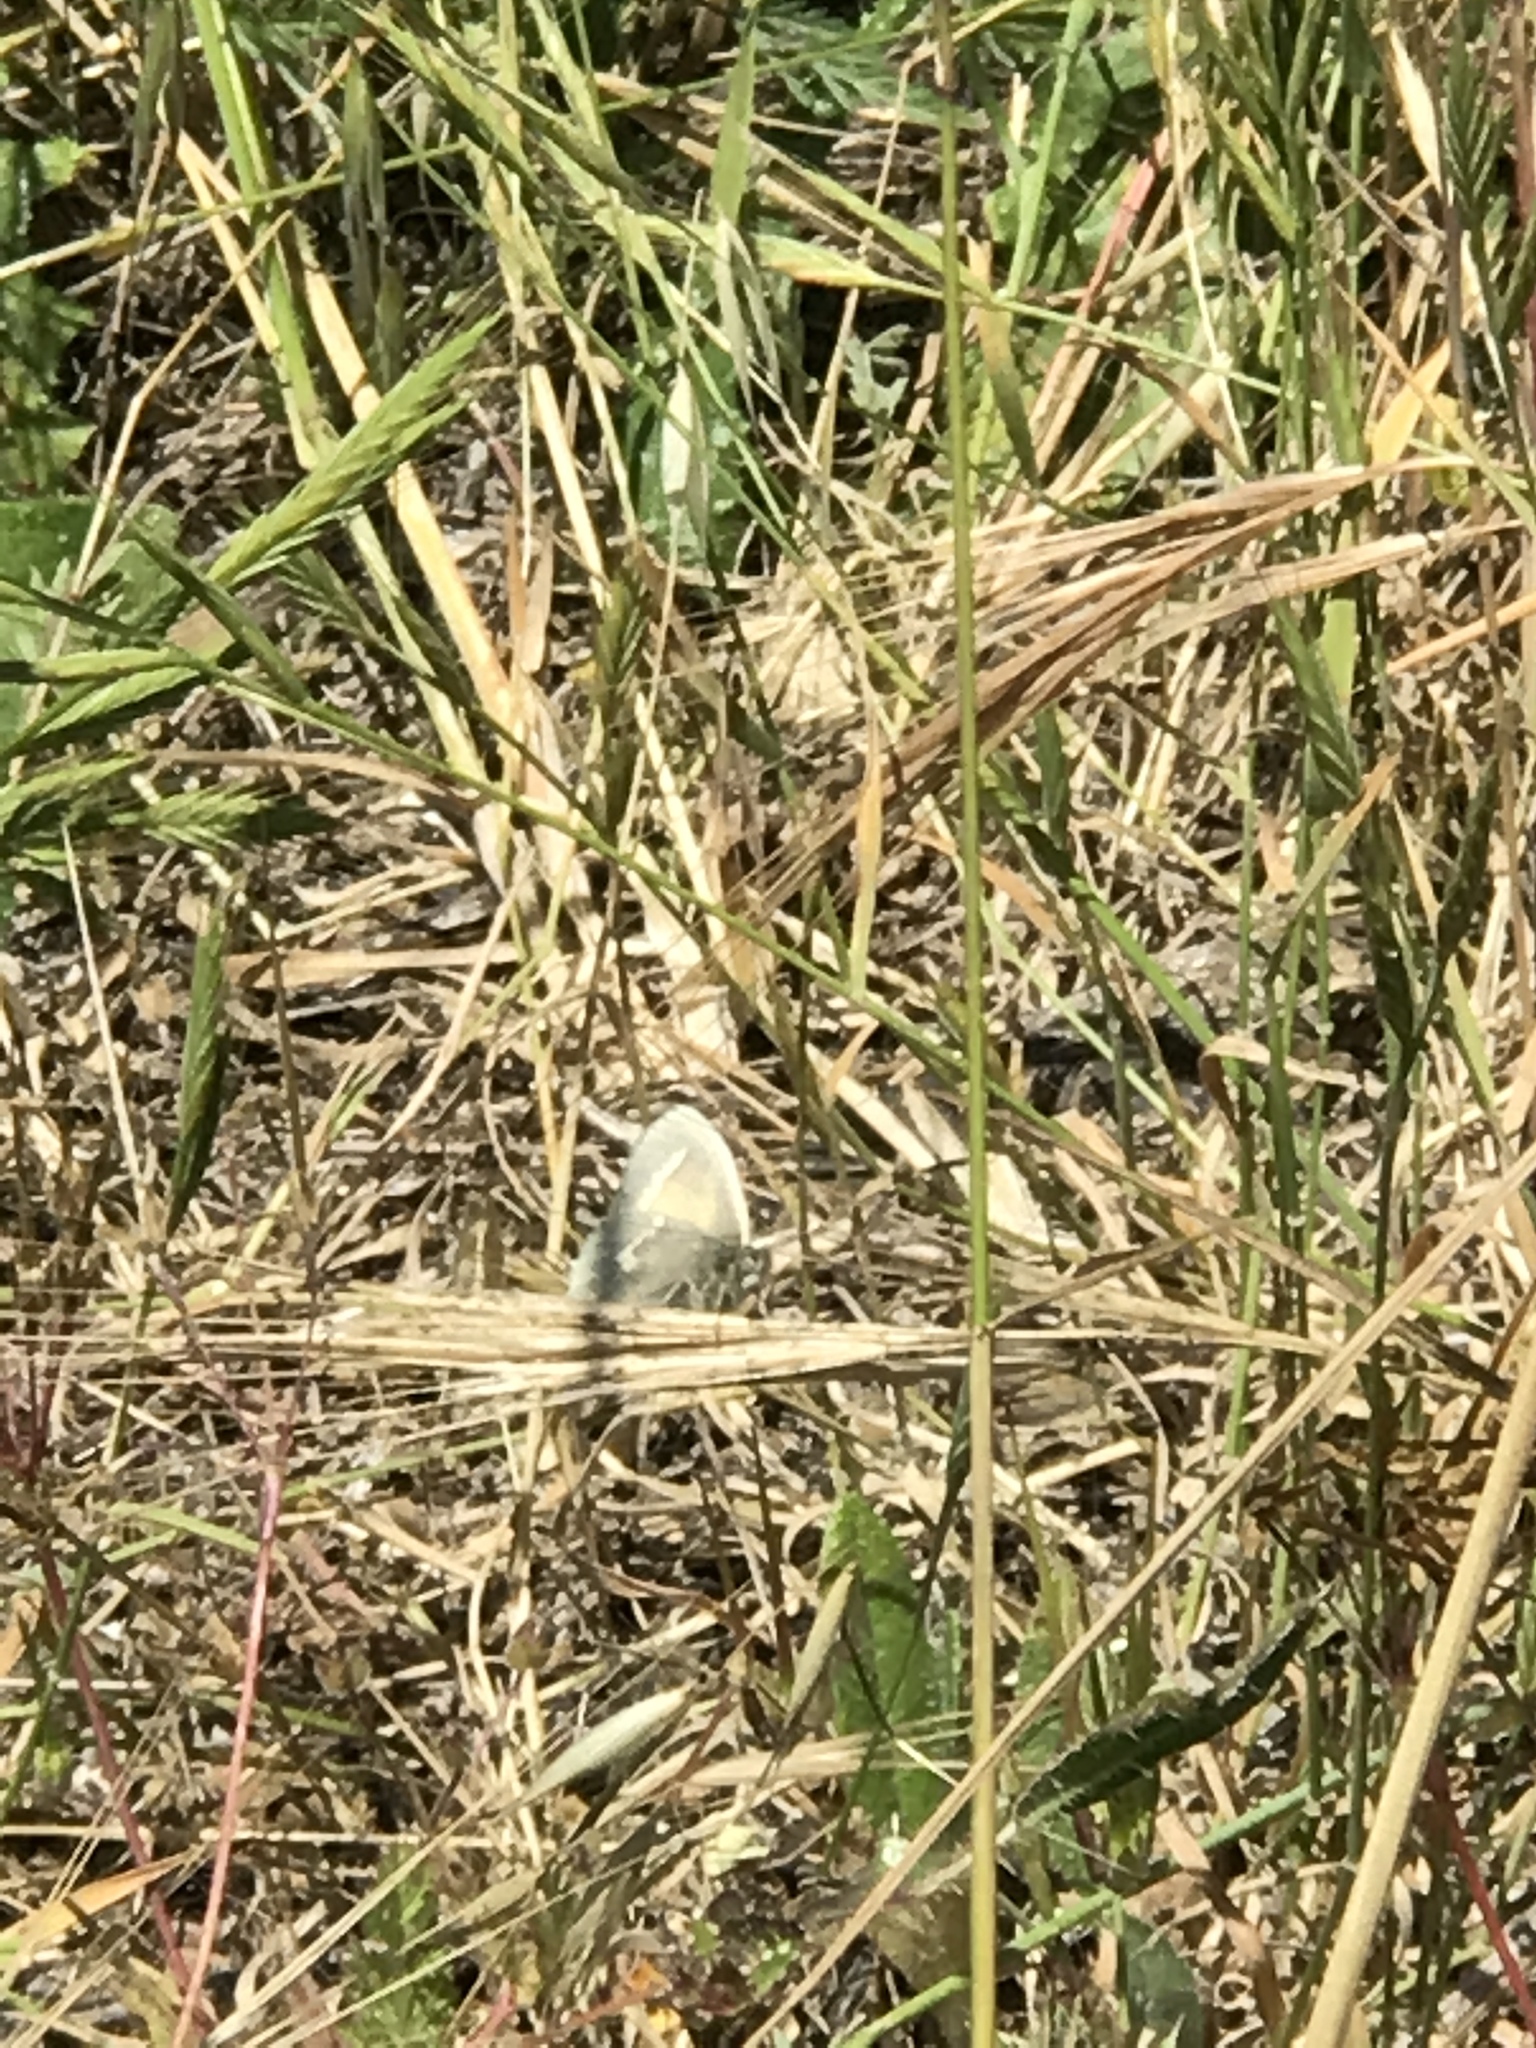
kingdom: Animalia
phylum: Arthropoda
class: Insecta
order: Lepidoptera
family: Nymphalidae
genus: Coenonympha
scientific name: Coenonympha california
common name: Common ringlet
